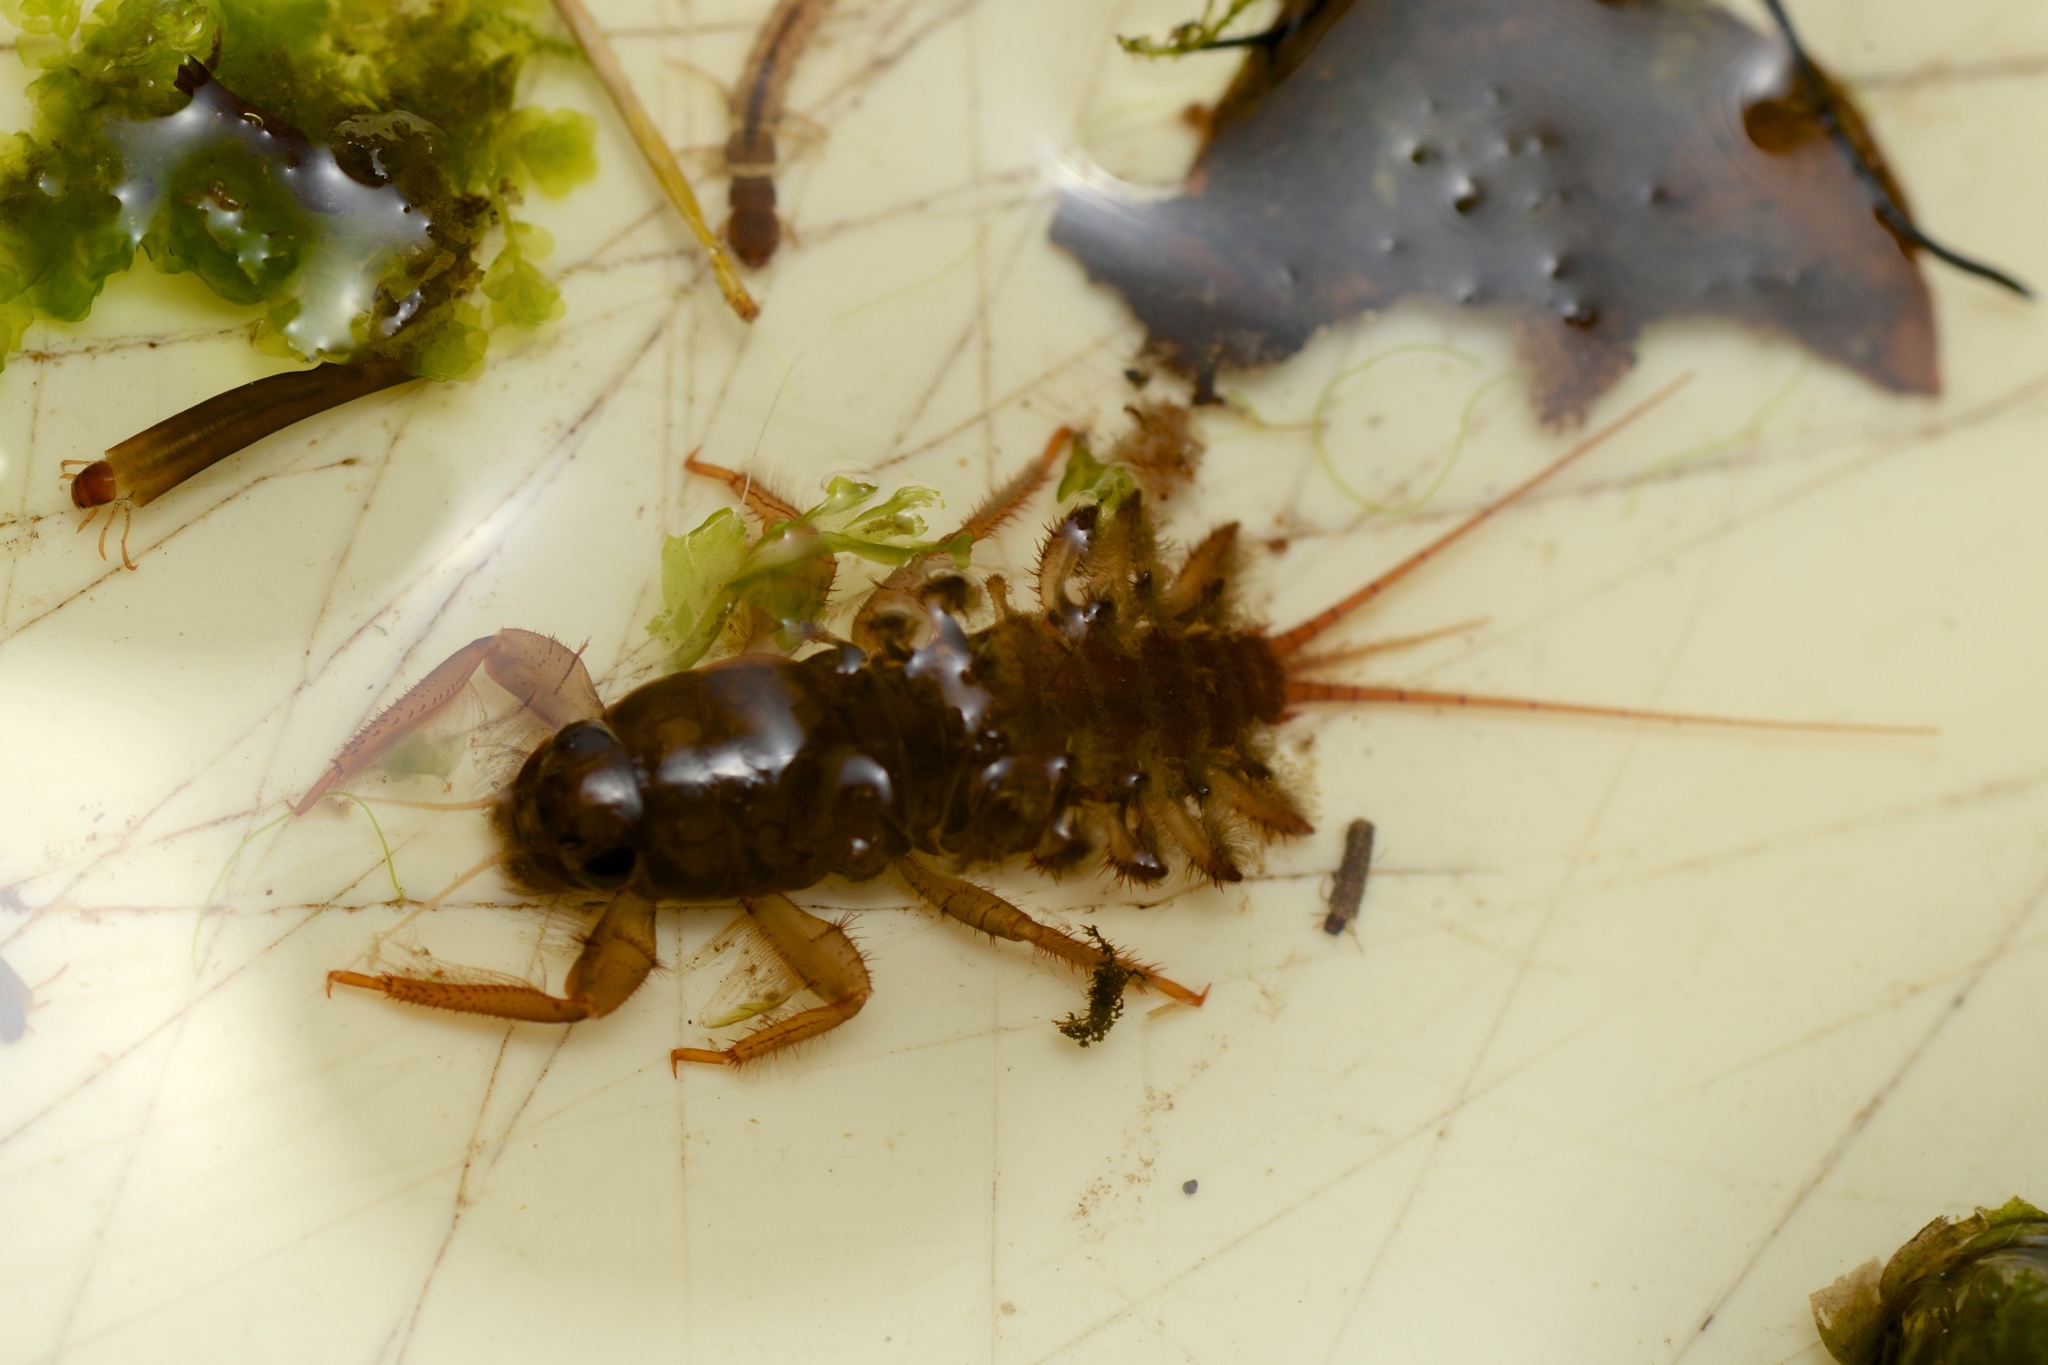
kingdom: Animalia
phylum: Arthropoda
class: Insecta
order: Ephemeroptera
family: Coloburiscidae
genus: Coloburiscus
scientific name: Coloburiscus humeralis
